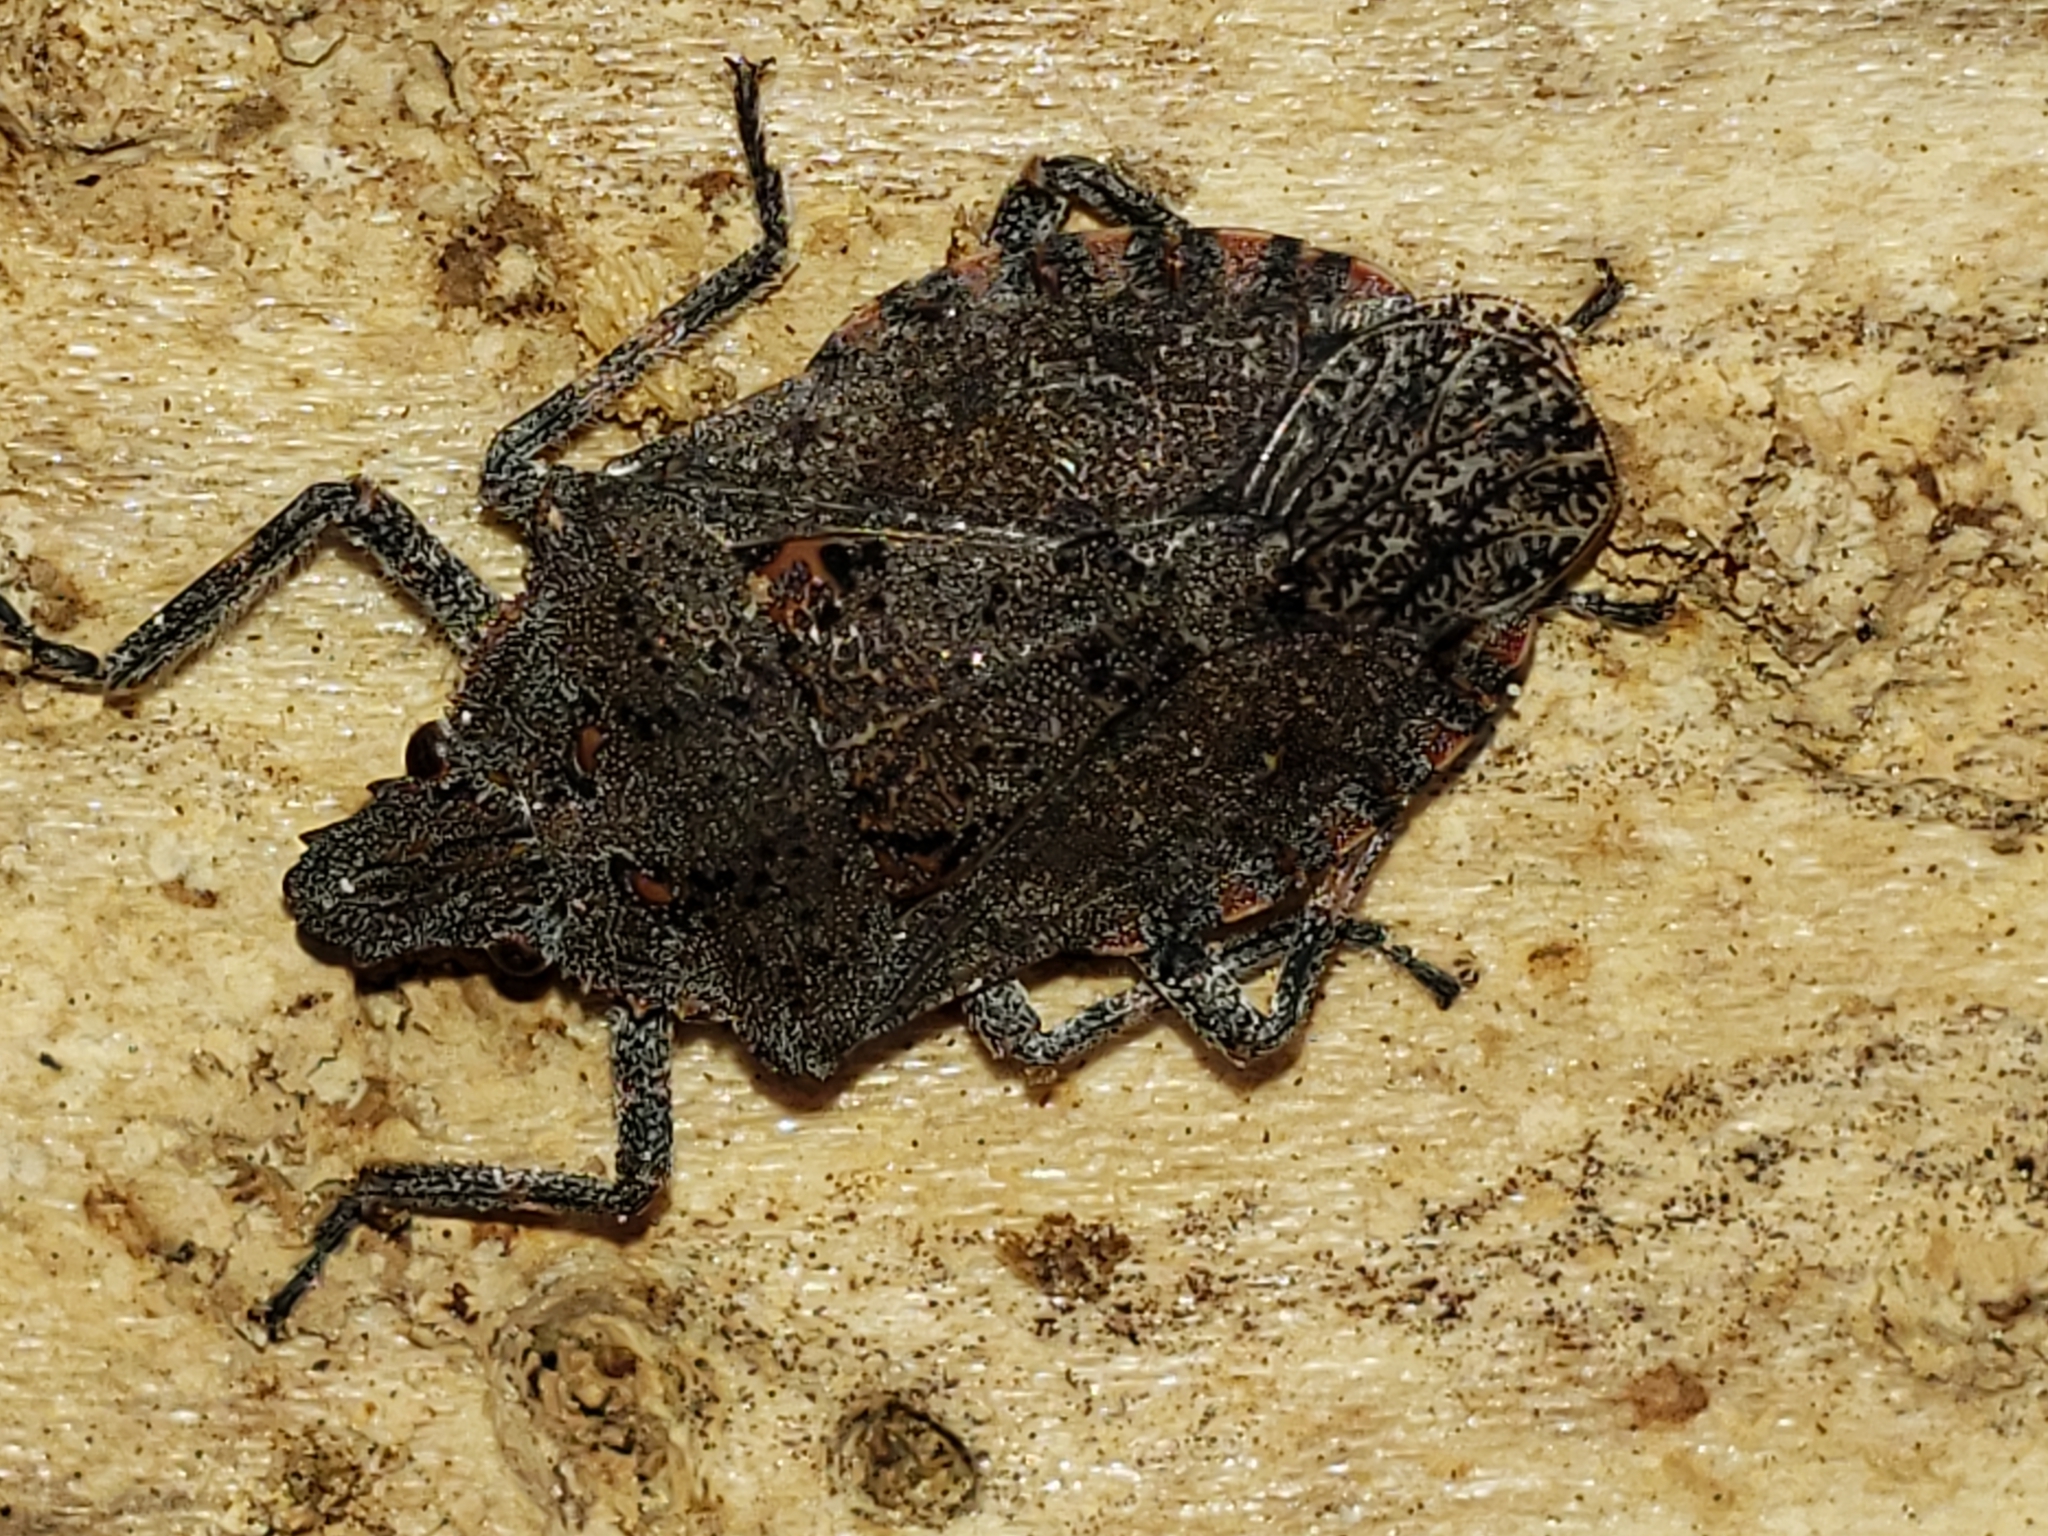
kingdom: Animalia
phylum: Arthropoda
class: Insecta
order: Hemiptera
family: Pentatomidae
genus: Brochymena
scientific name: Brochymena quadripustulata
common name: Four-humped stink bug
